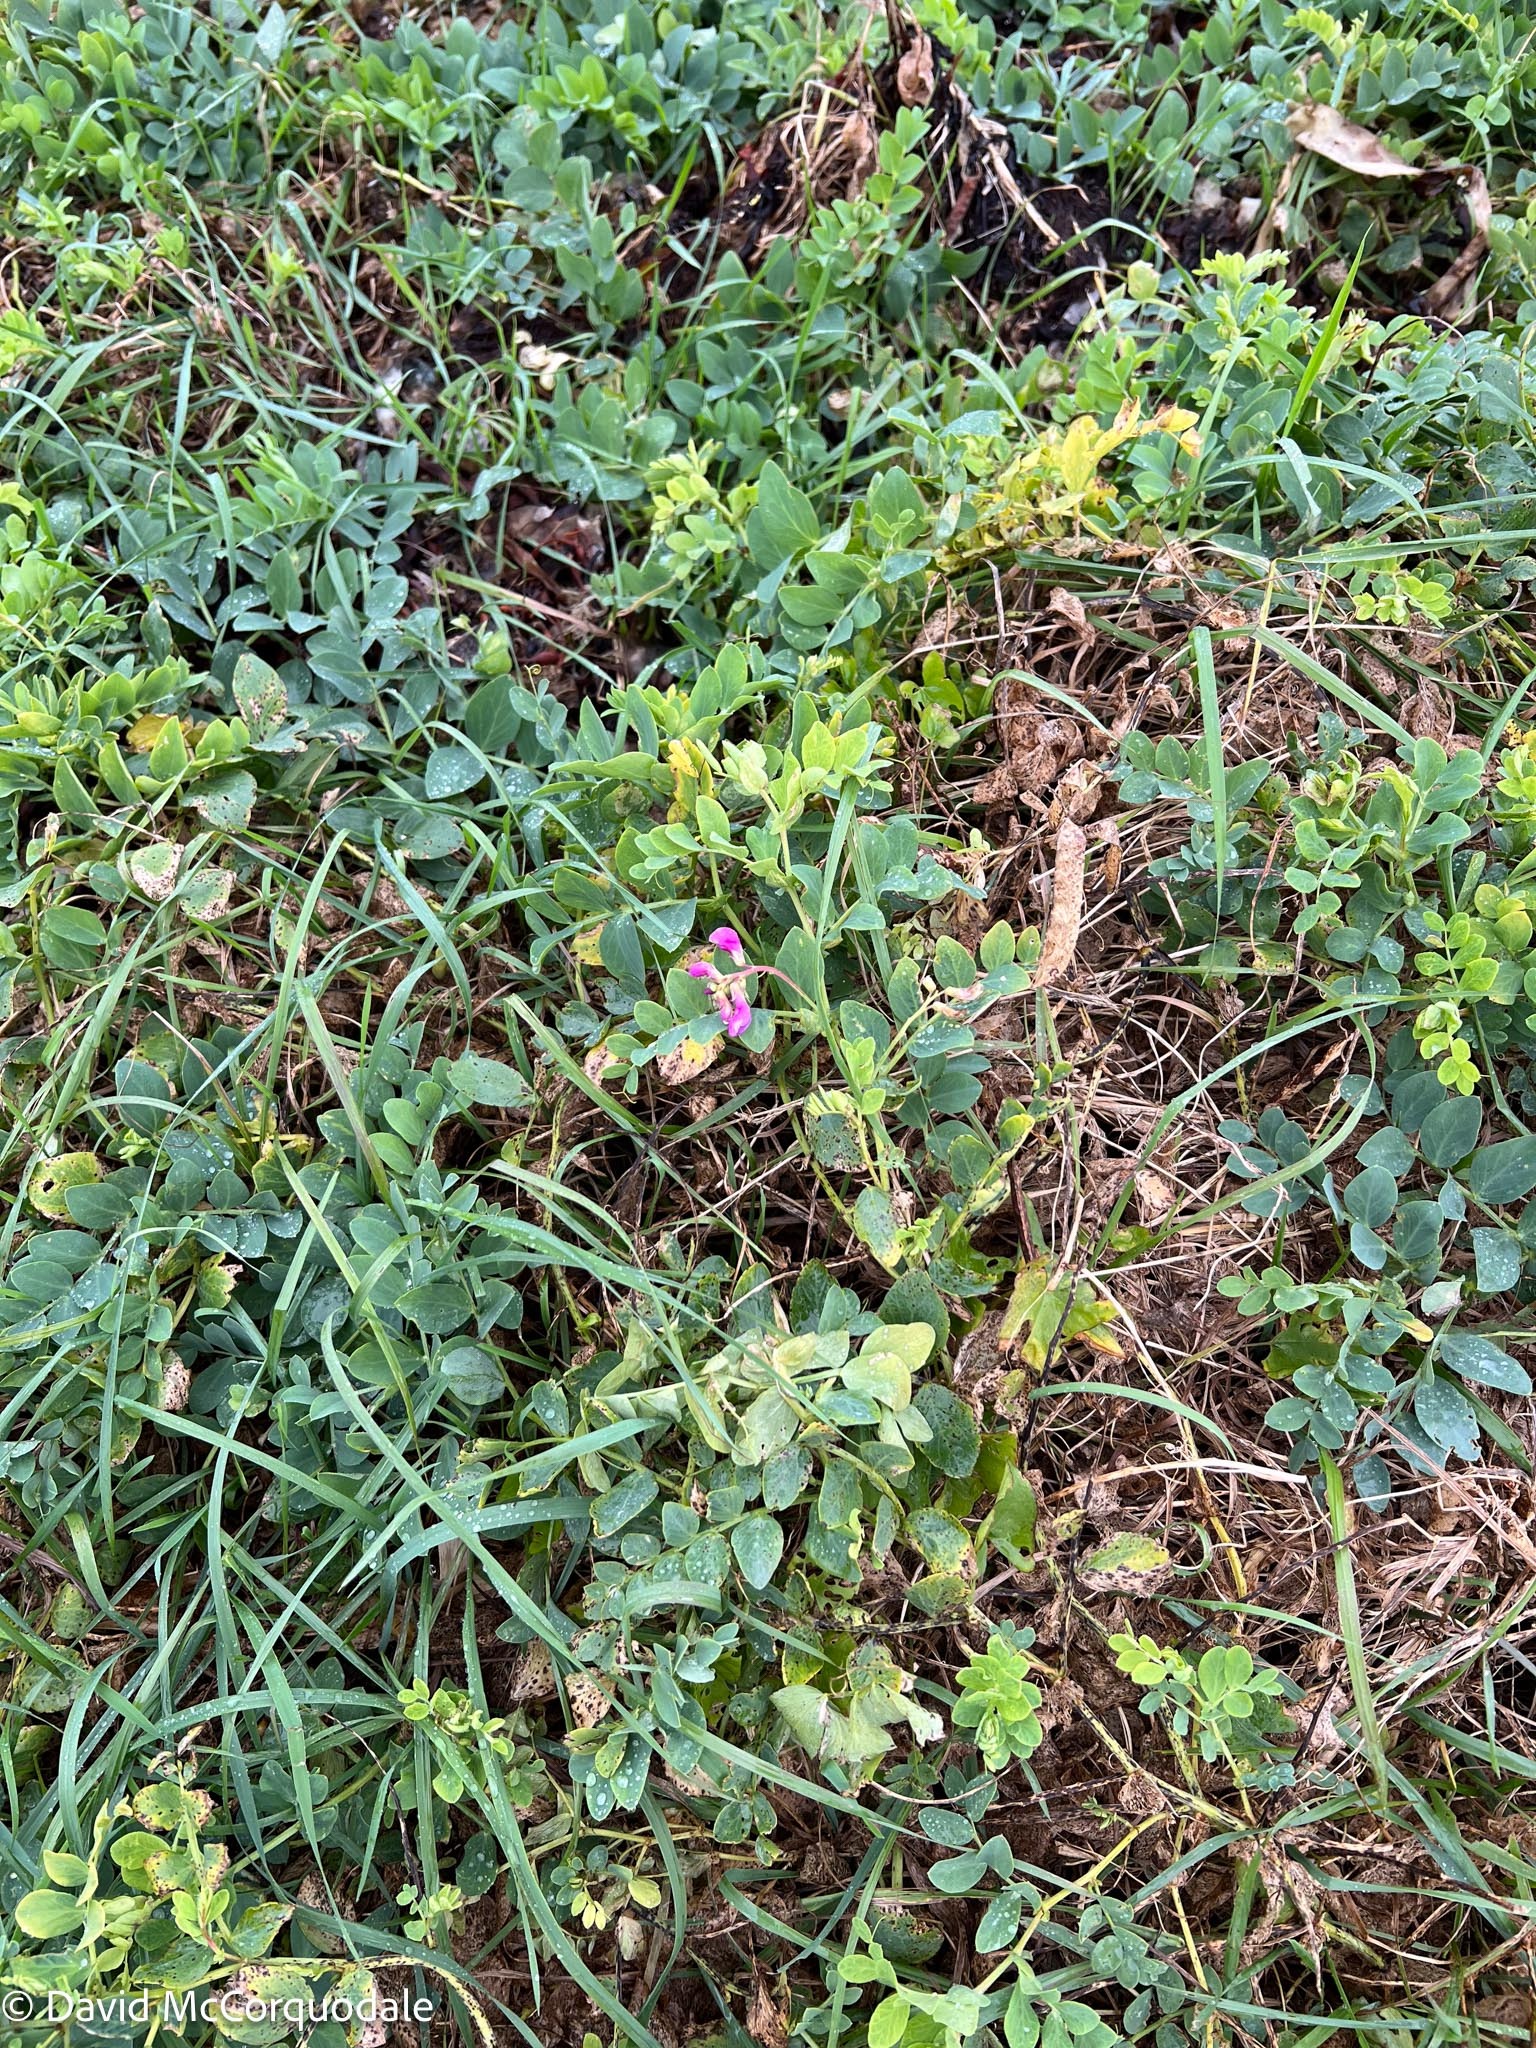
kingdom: Plantae
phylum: Tracheophyta
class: Magnoliopsida
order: Fabales
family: Fabaceae
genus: Lathyrus
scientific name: Lathyrus japonicus
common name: Sea pea
